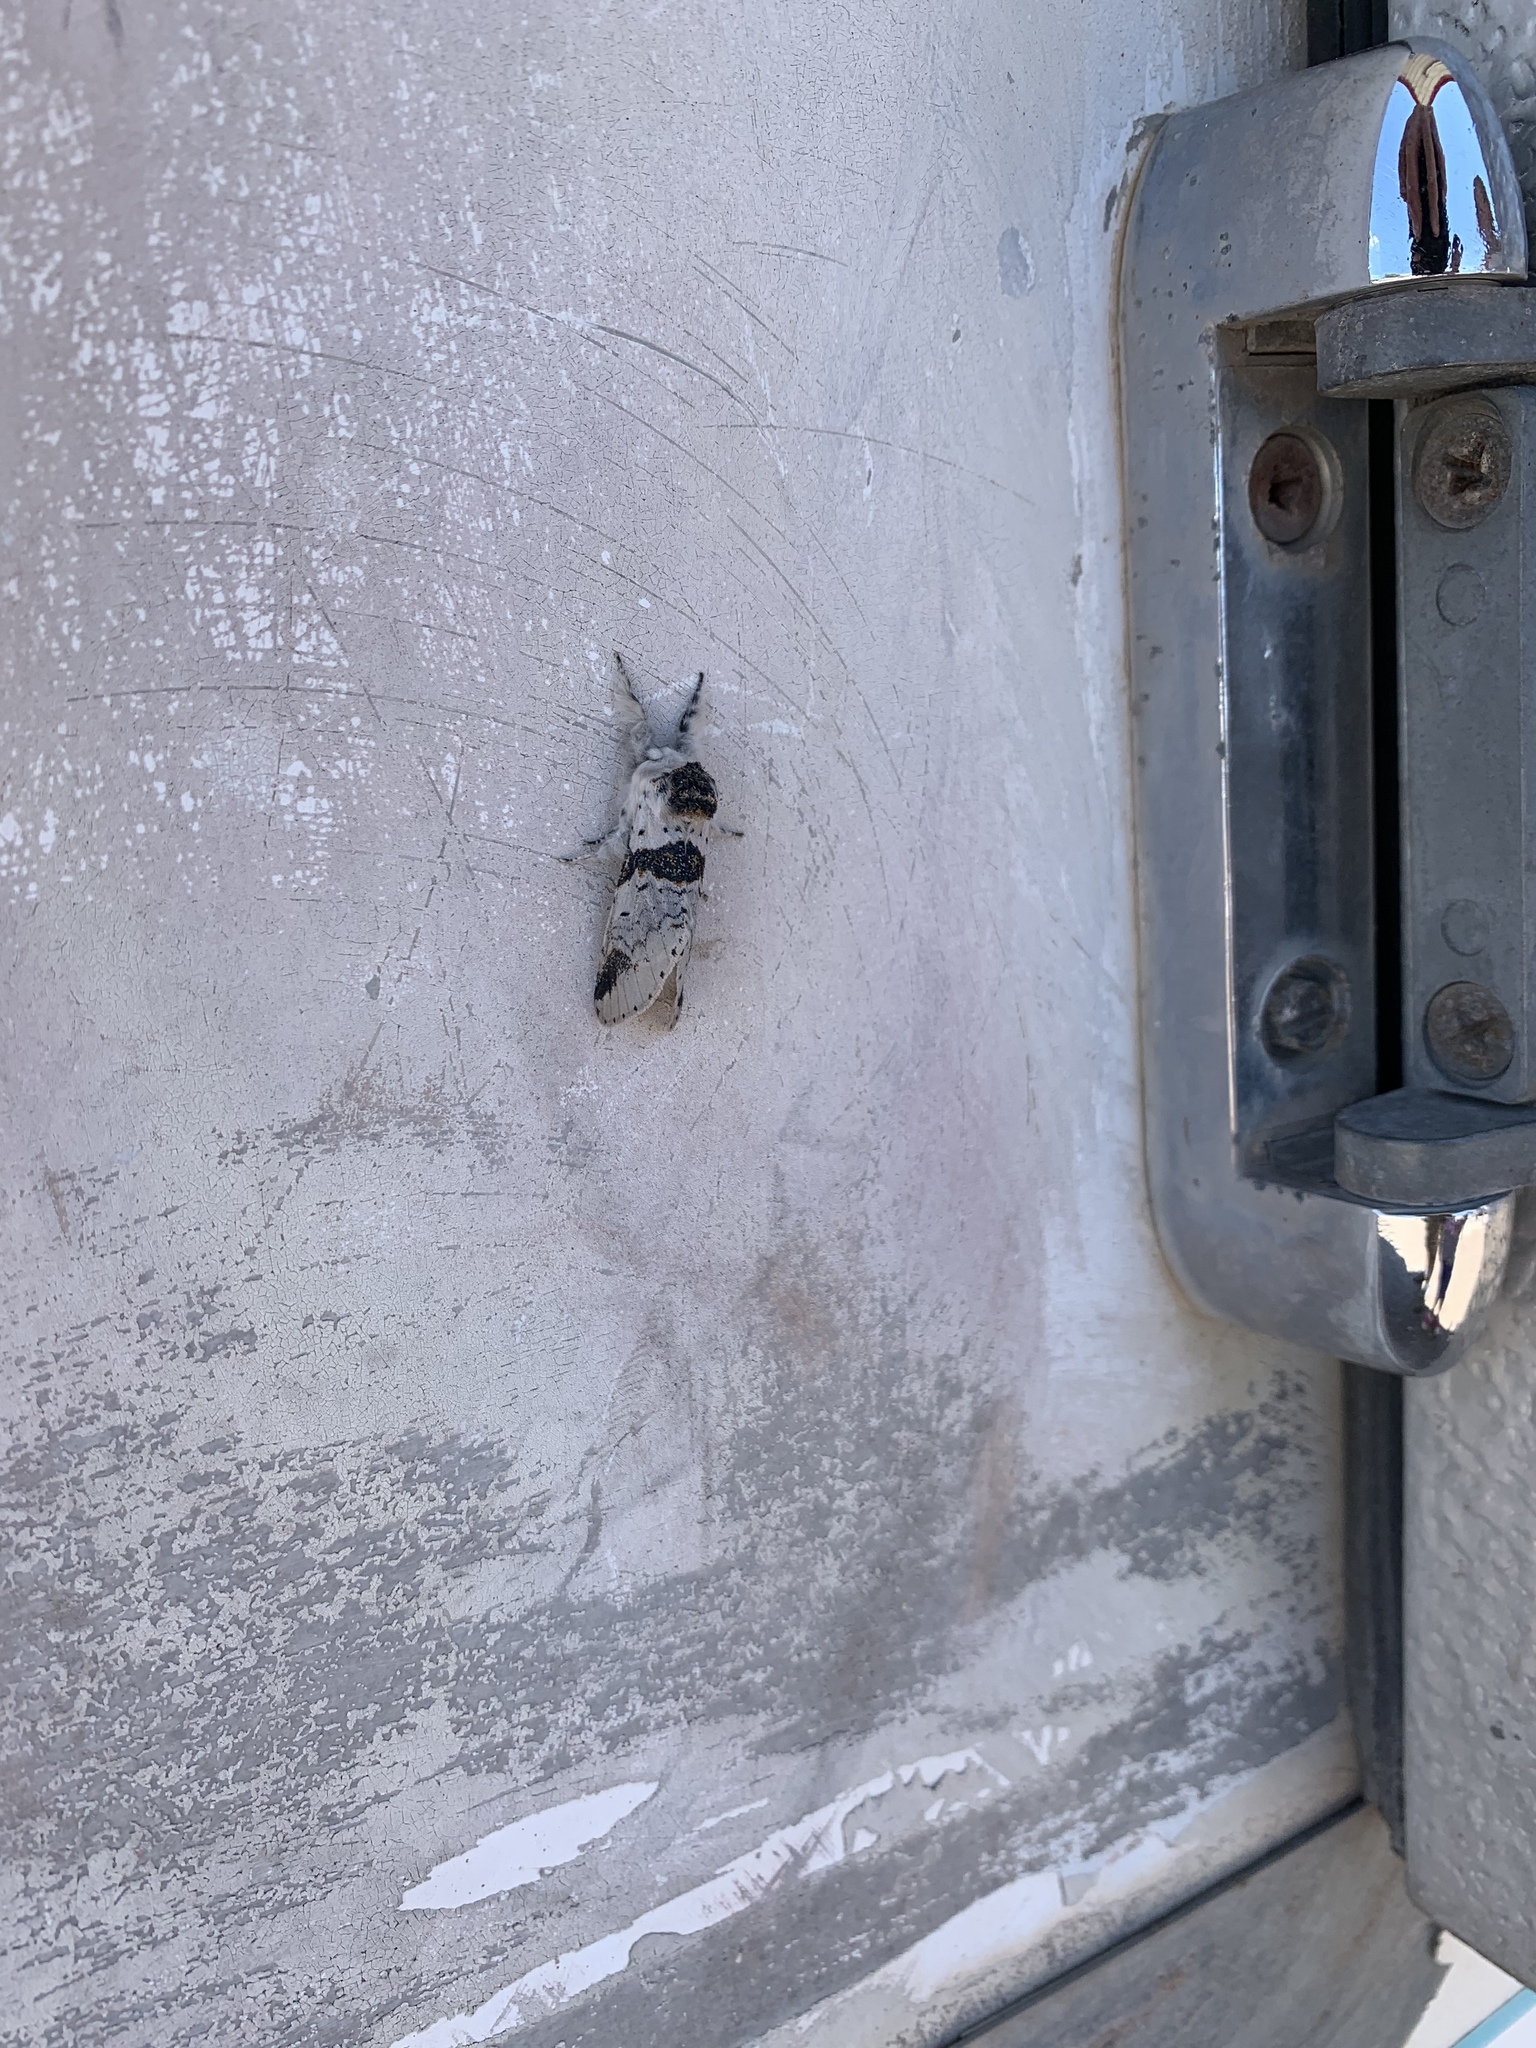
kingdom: Animalia
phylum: Arthropoda
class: Insecta
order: Lepidoptera
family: Notodontidae
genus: Furcula
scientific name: Furcula scolopendrina
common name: Zigzag furcula moth
